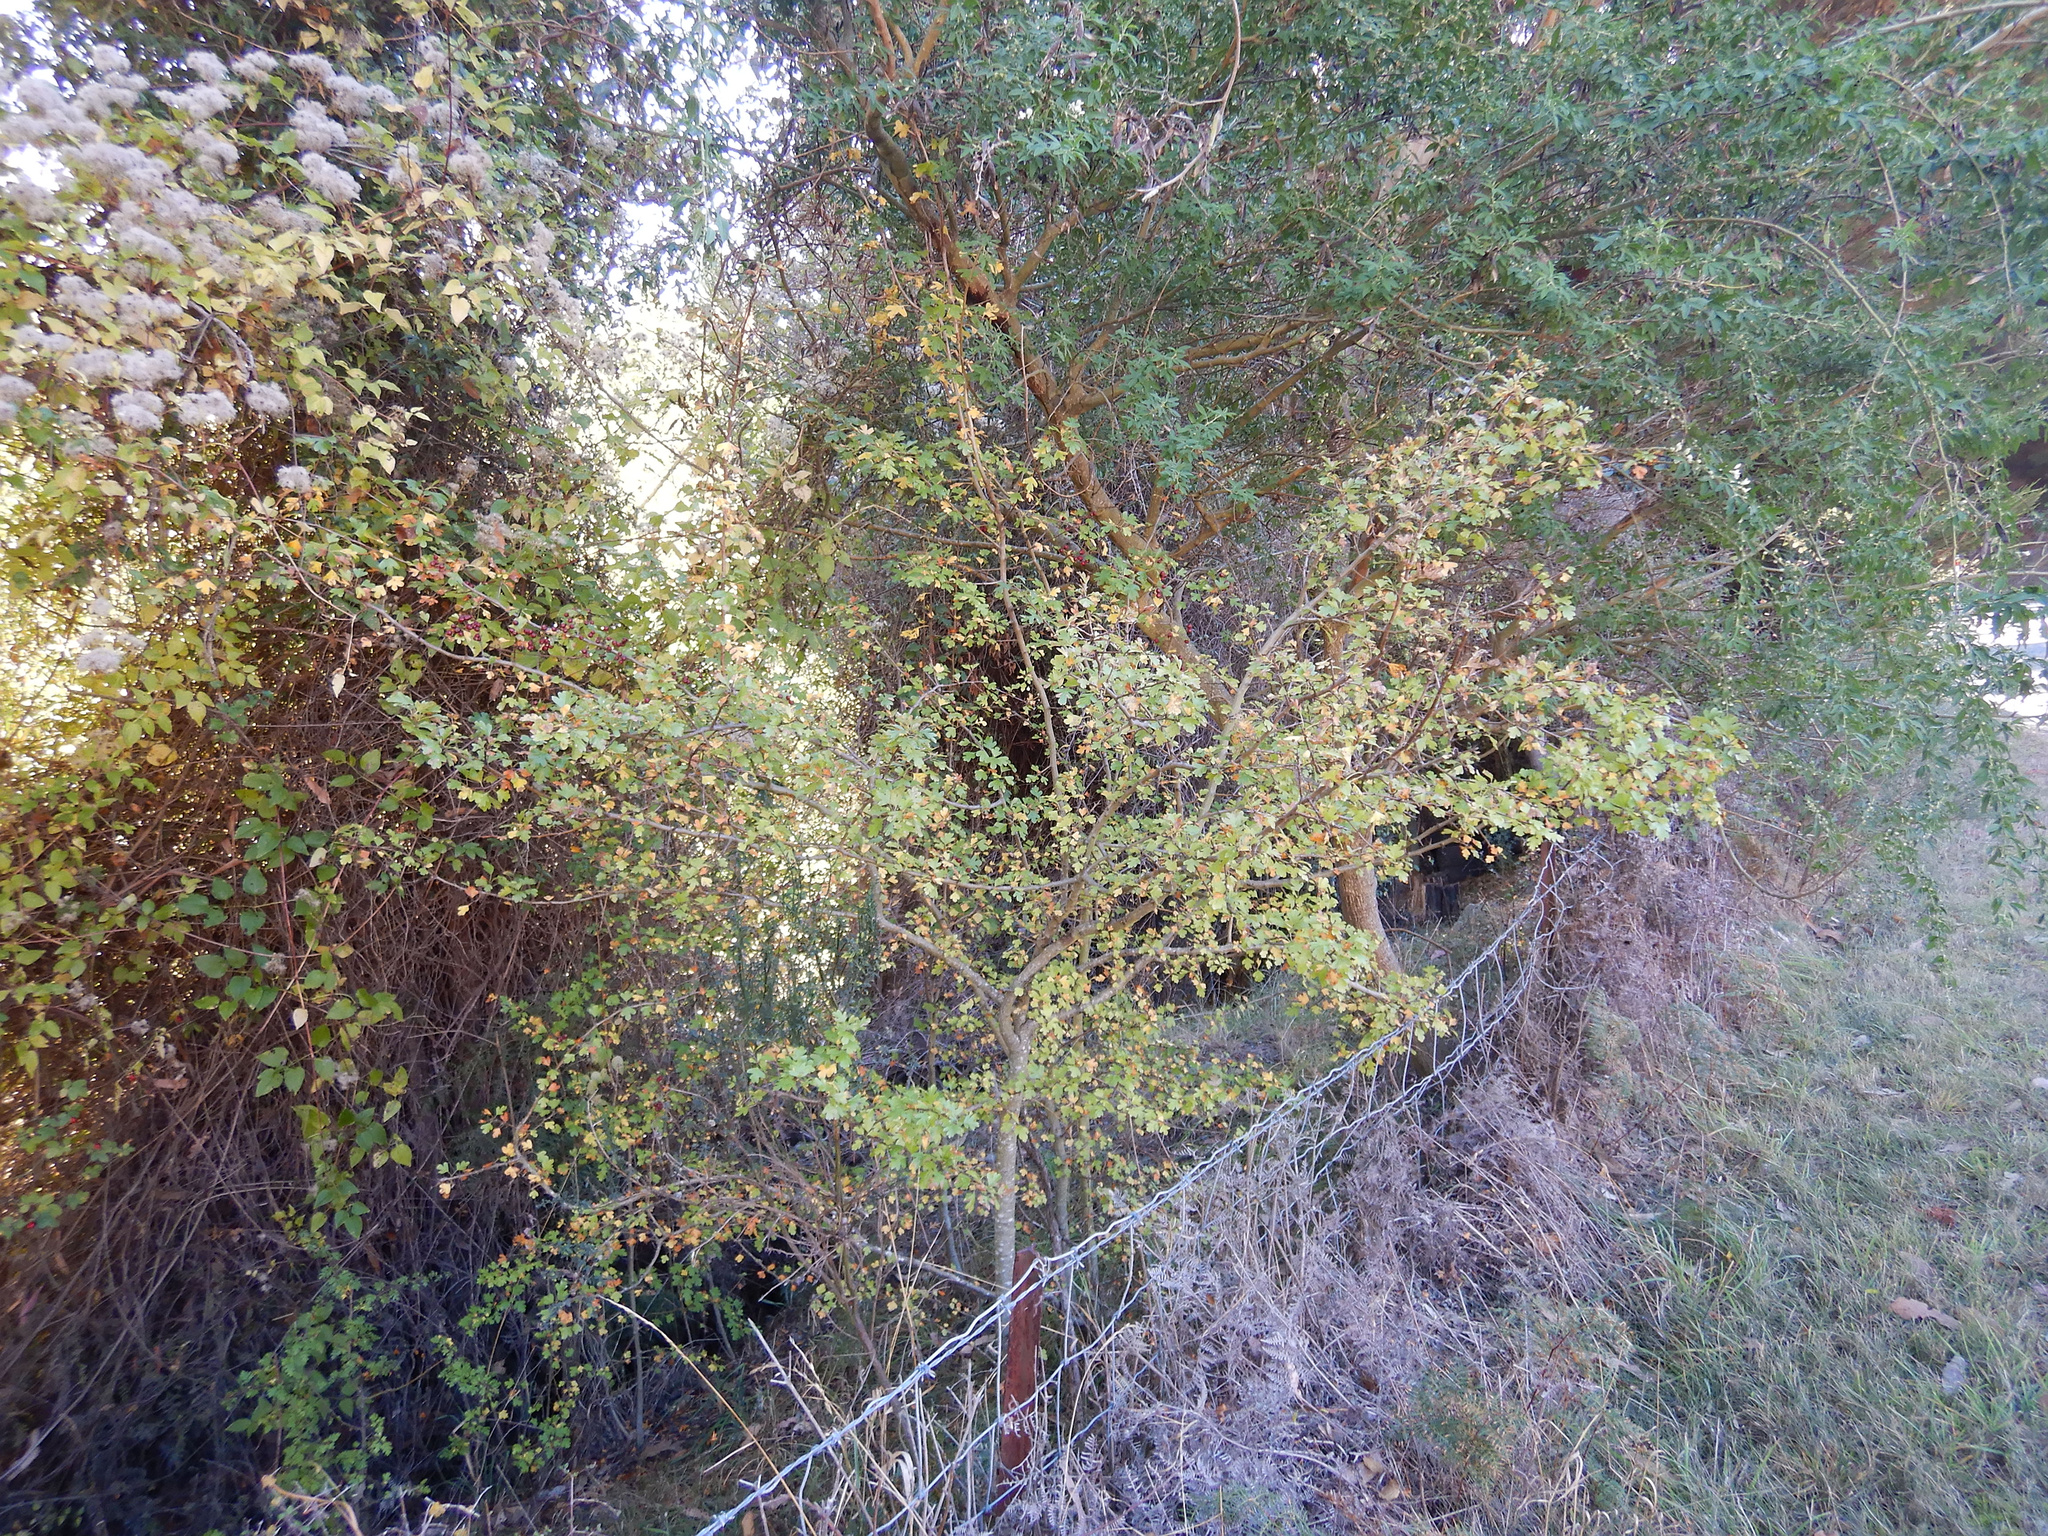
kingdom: Plantae
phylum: Tracheophyta
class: Magnoliopsida
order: Rosales
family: Rosaceae
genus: Crataegus
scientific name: Crataegus monogyna
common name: Hawthorn
